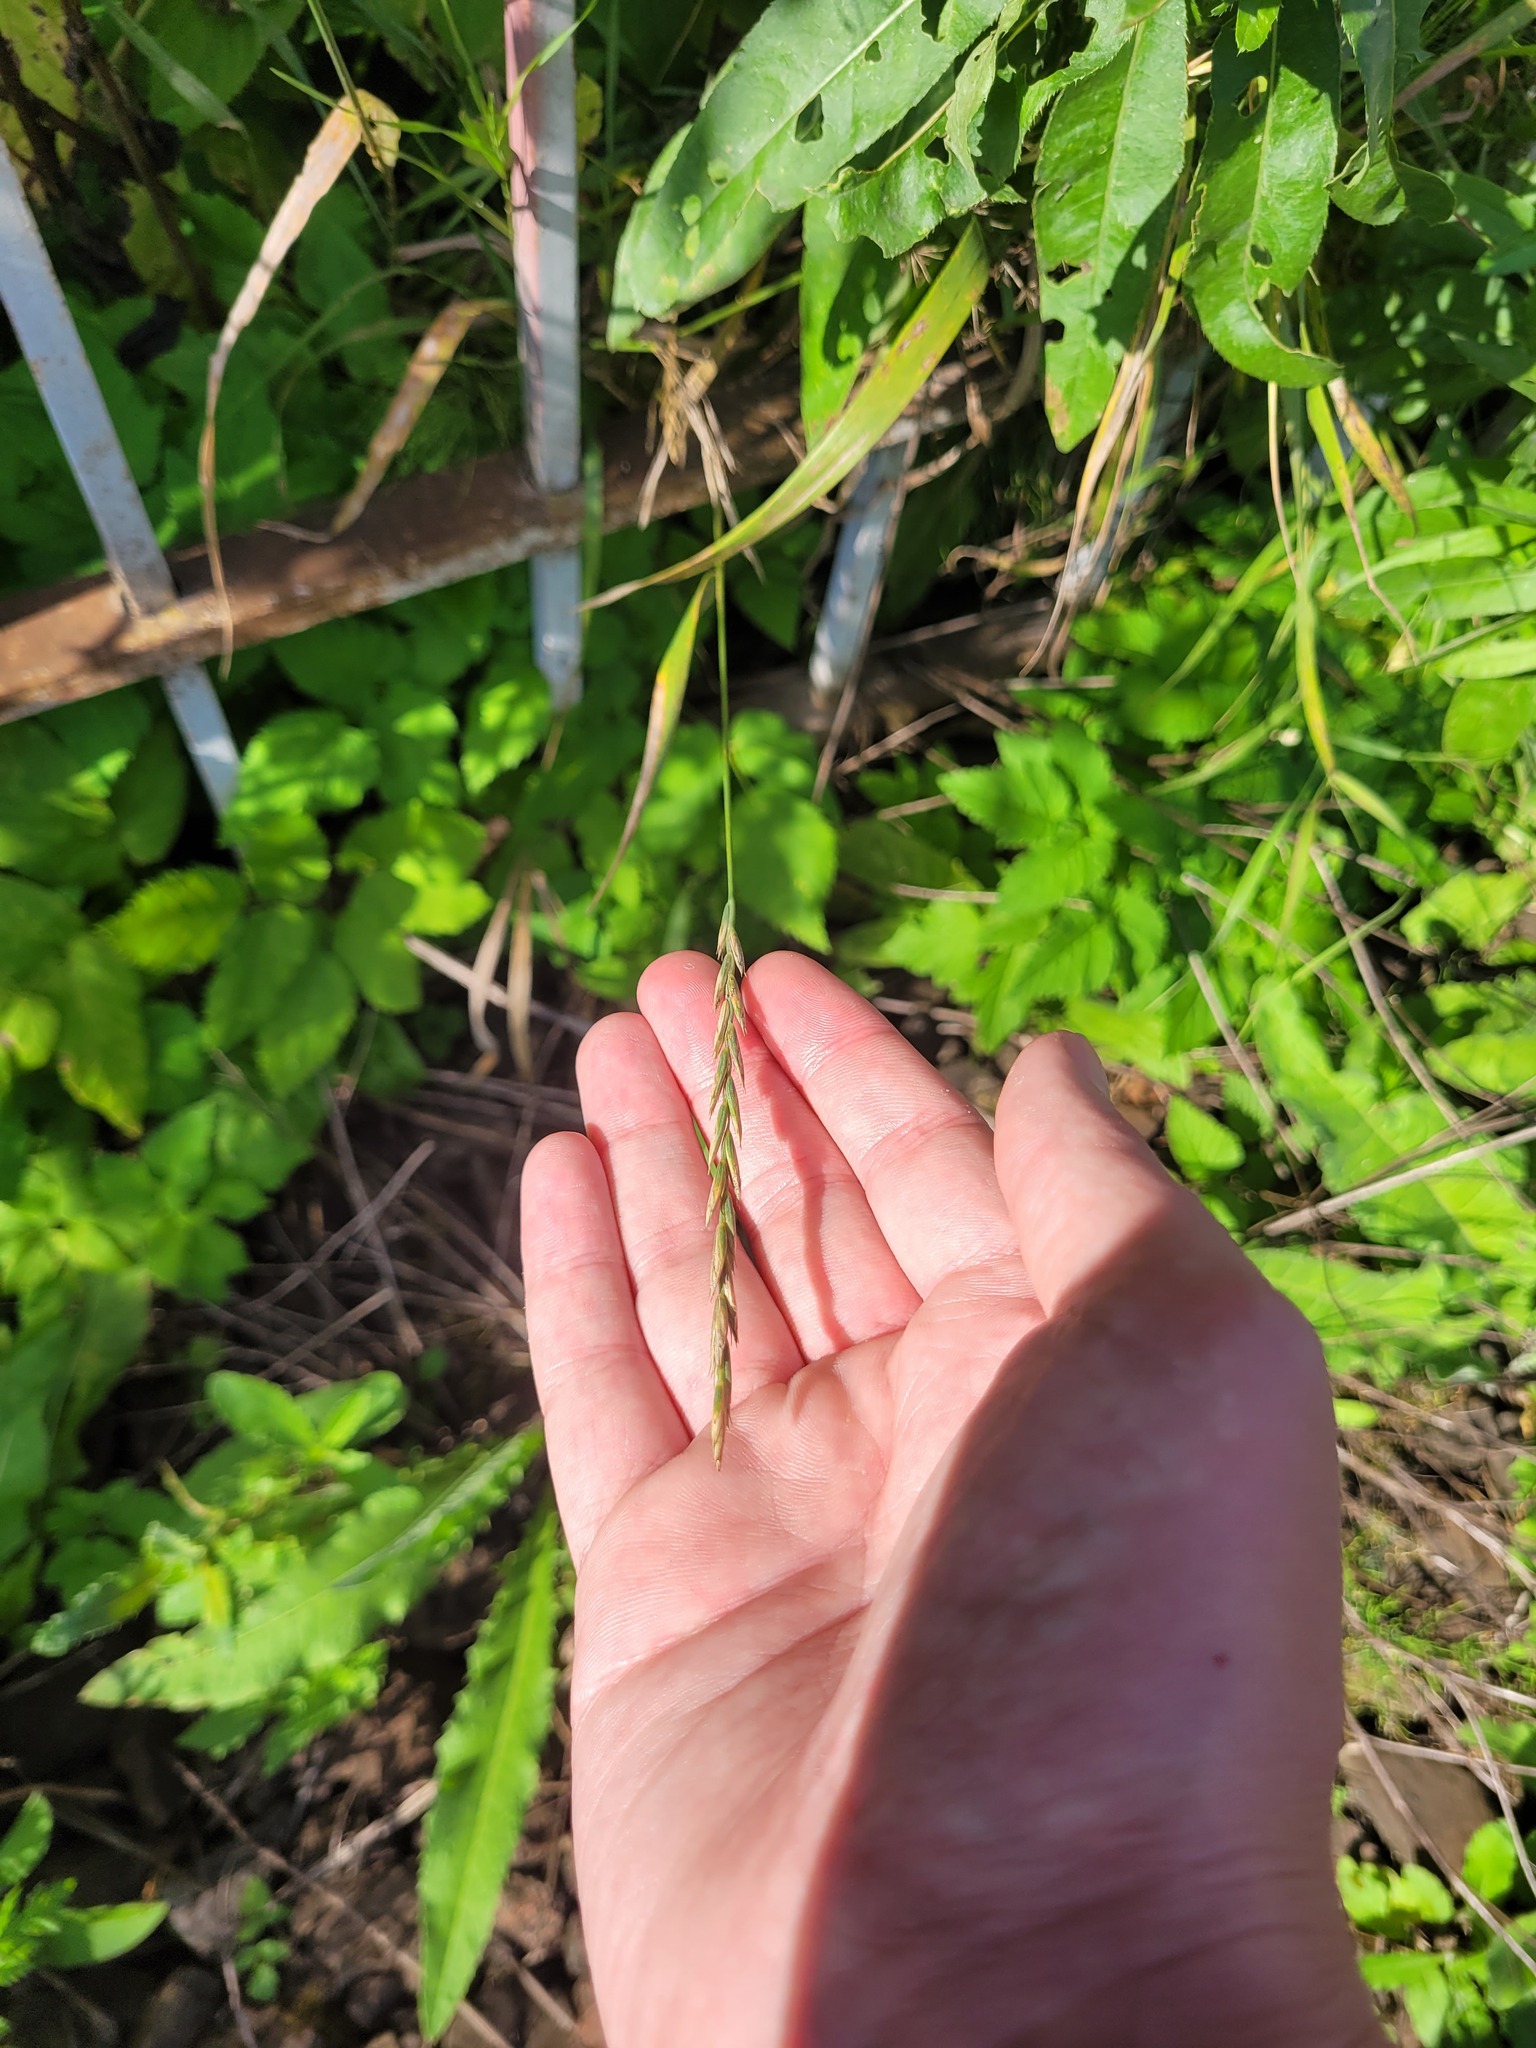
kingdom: Plantae
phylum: Tracheophyta
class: Liliopsida
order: Poales
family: Poaceae
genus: Elymus
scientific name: Elymus repens
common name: Quackgrass
